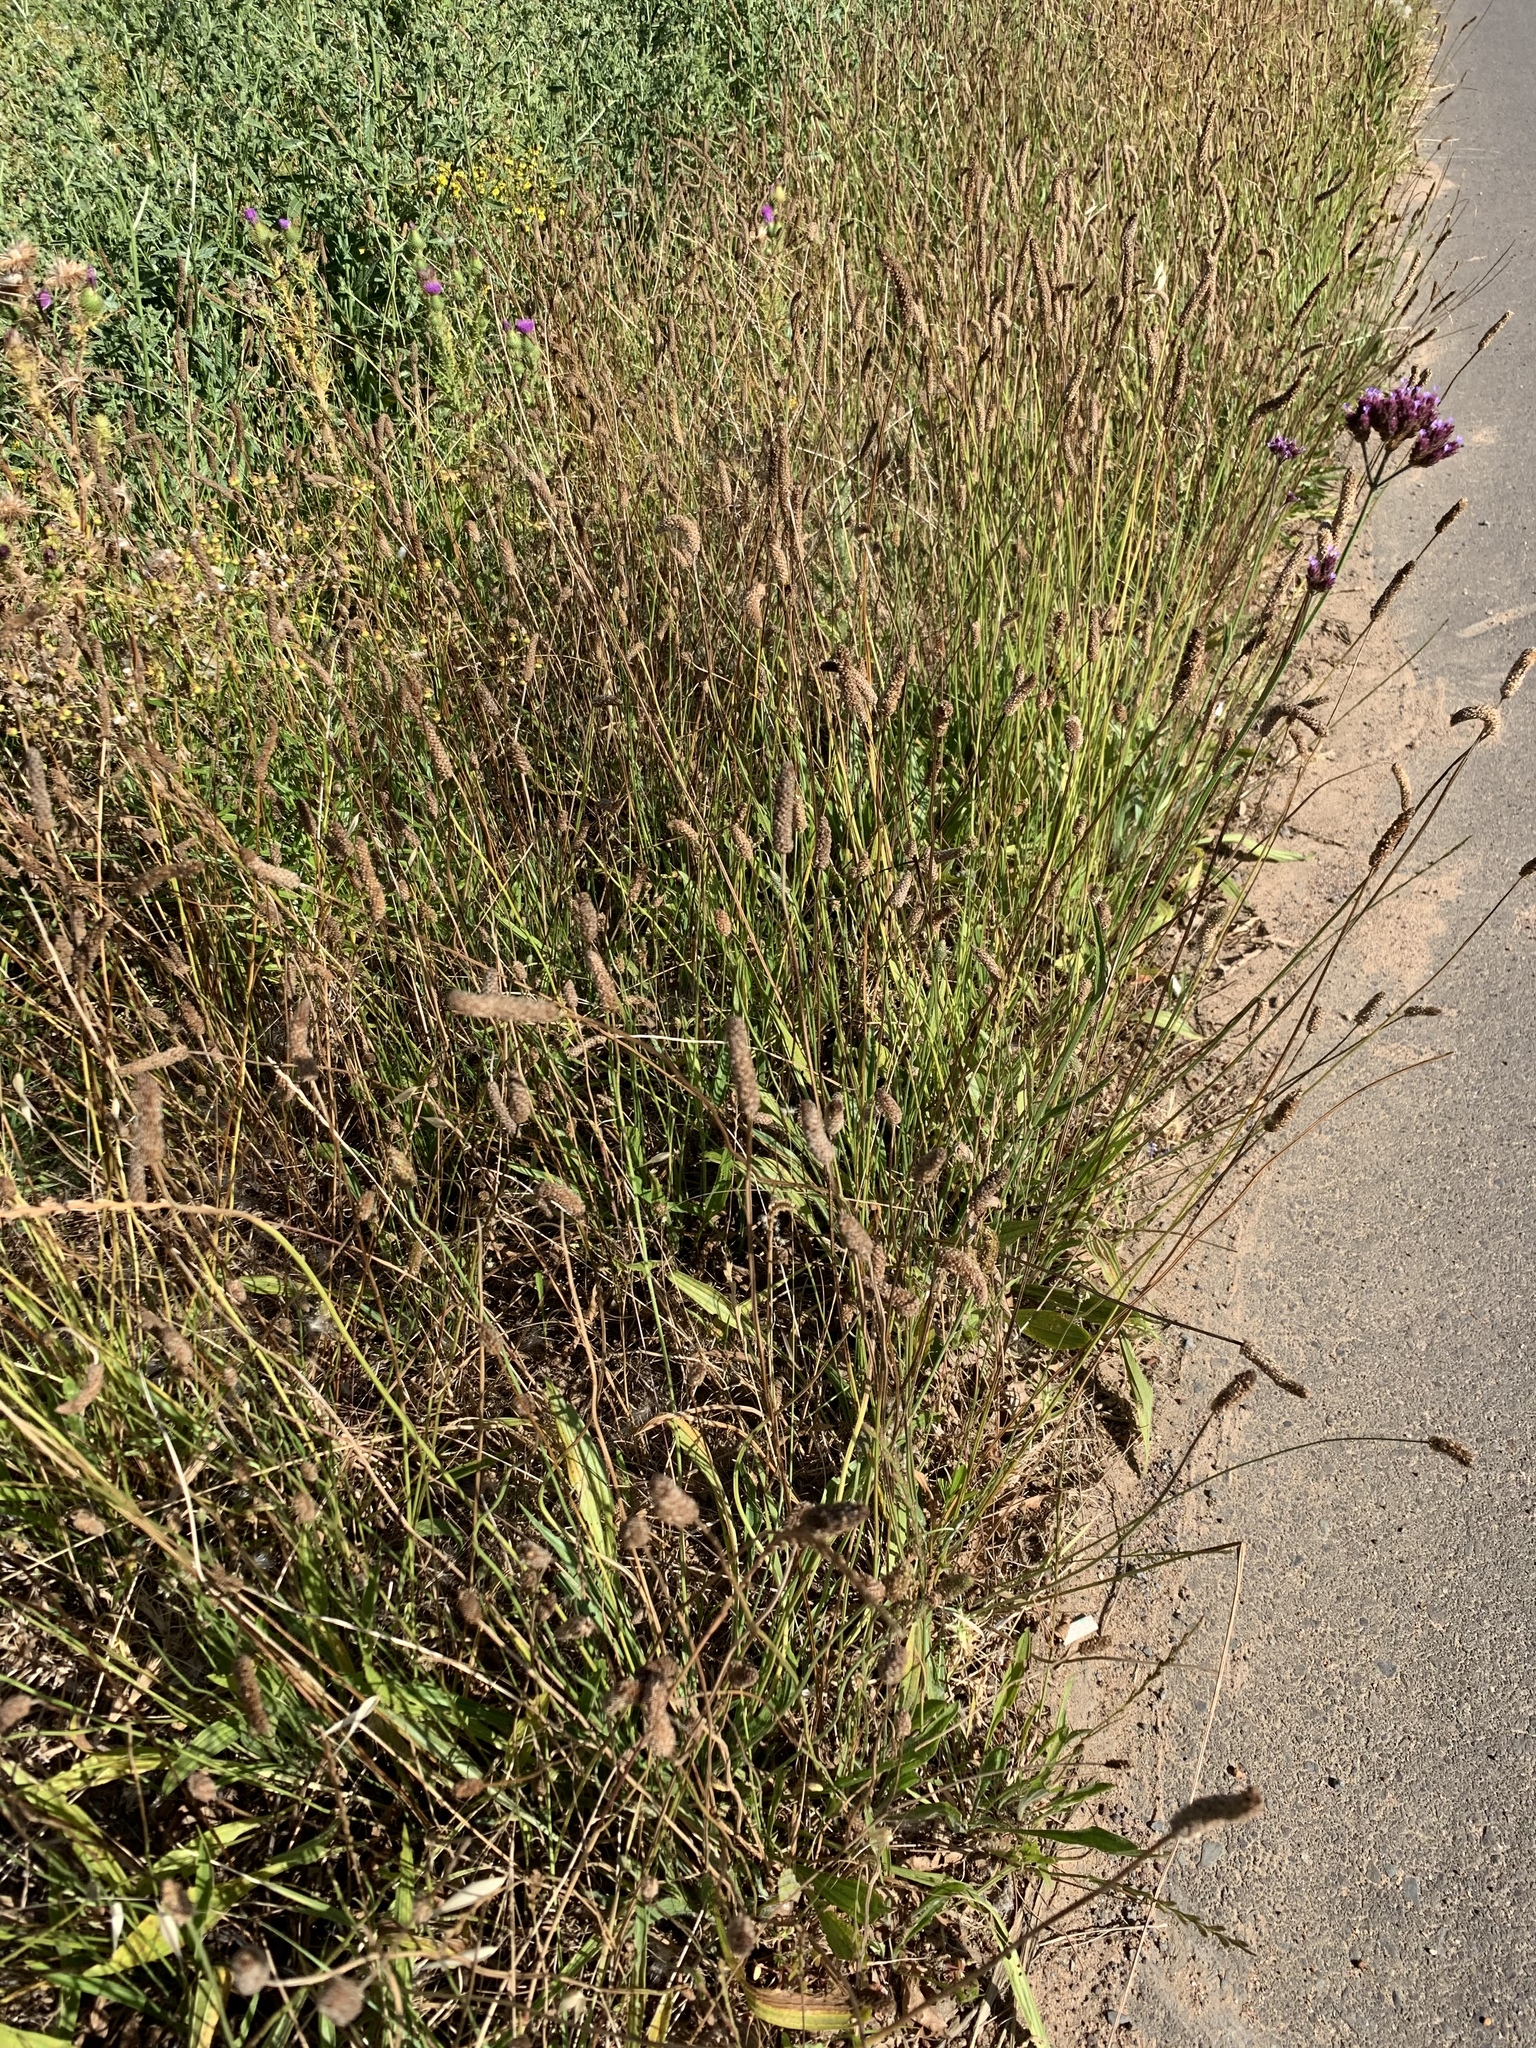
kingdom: Plantae
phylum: Tracheophyta
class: Magnoliopsida
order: Lamiales
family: Plantaginaceae
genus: Plantago
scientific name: Plantago lanceolata
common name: Ribwort plantain
